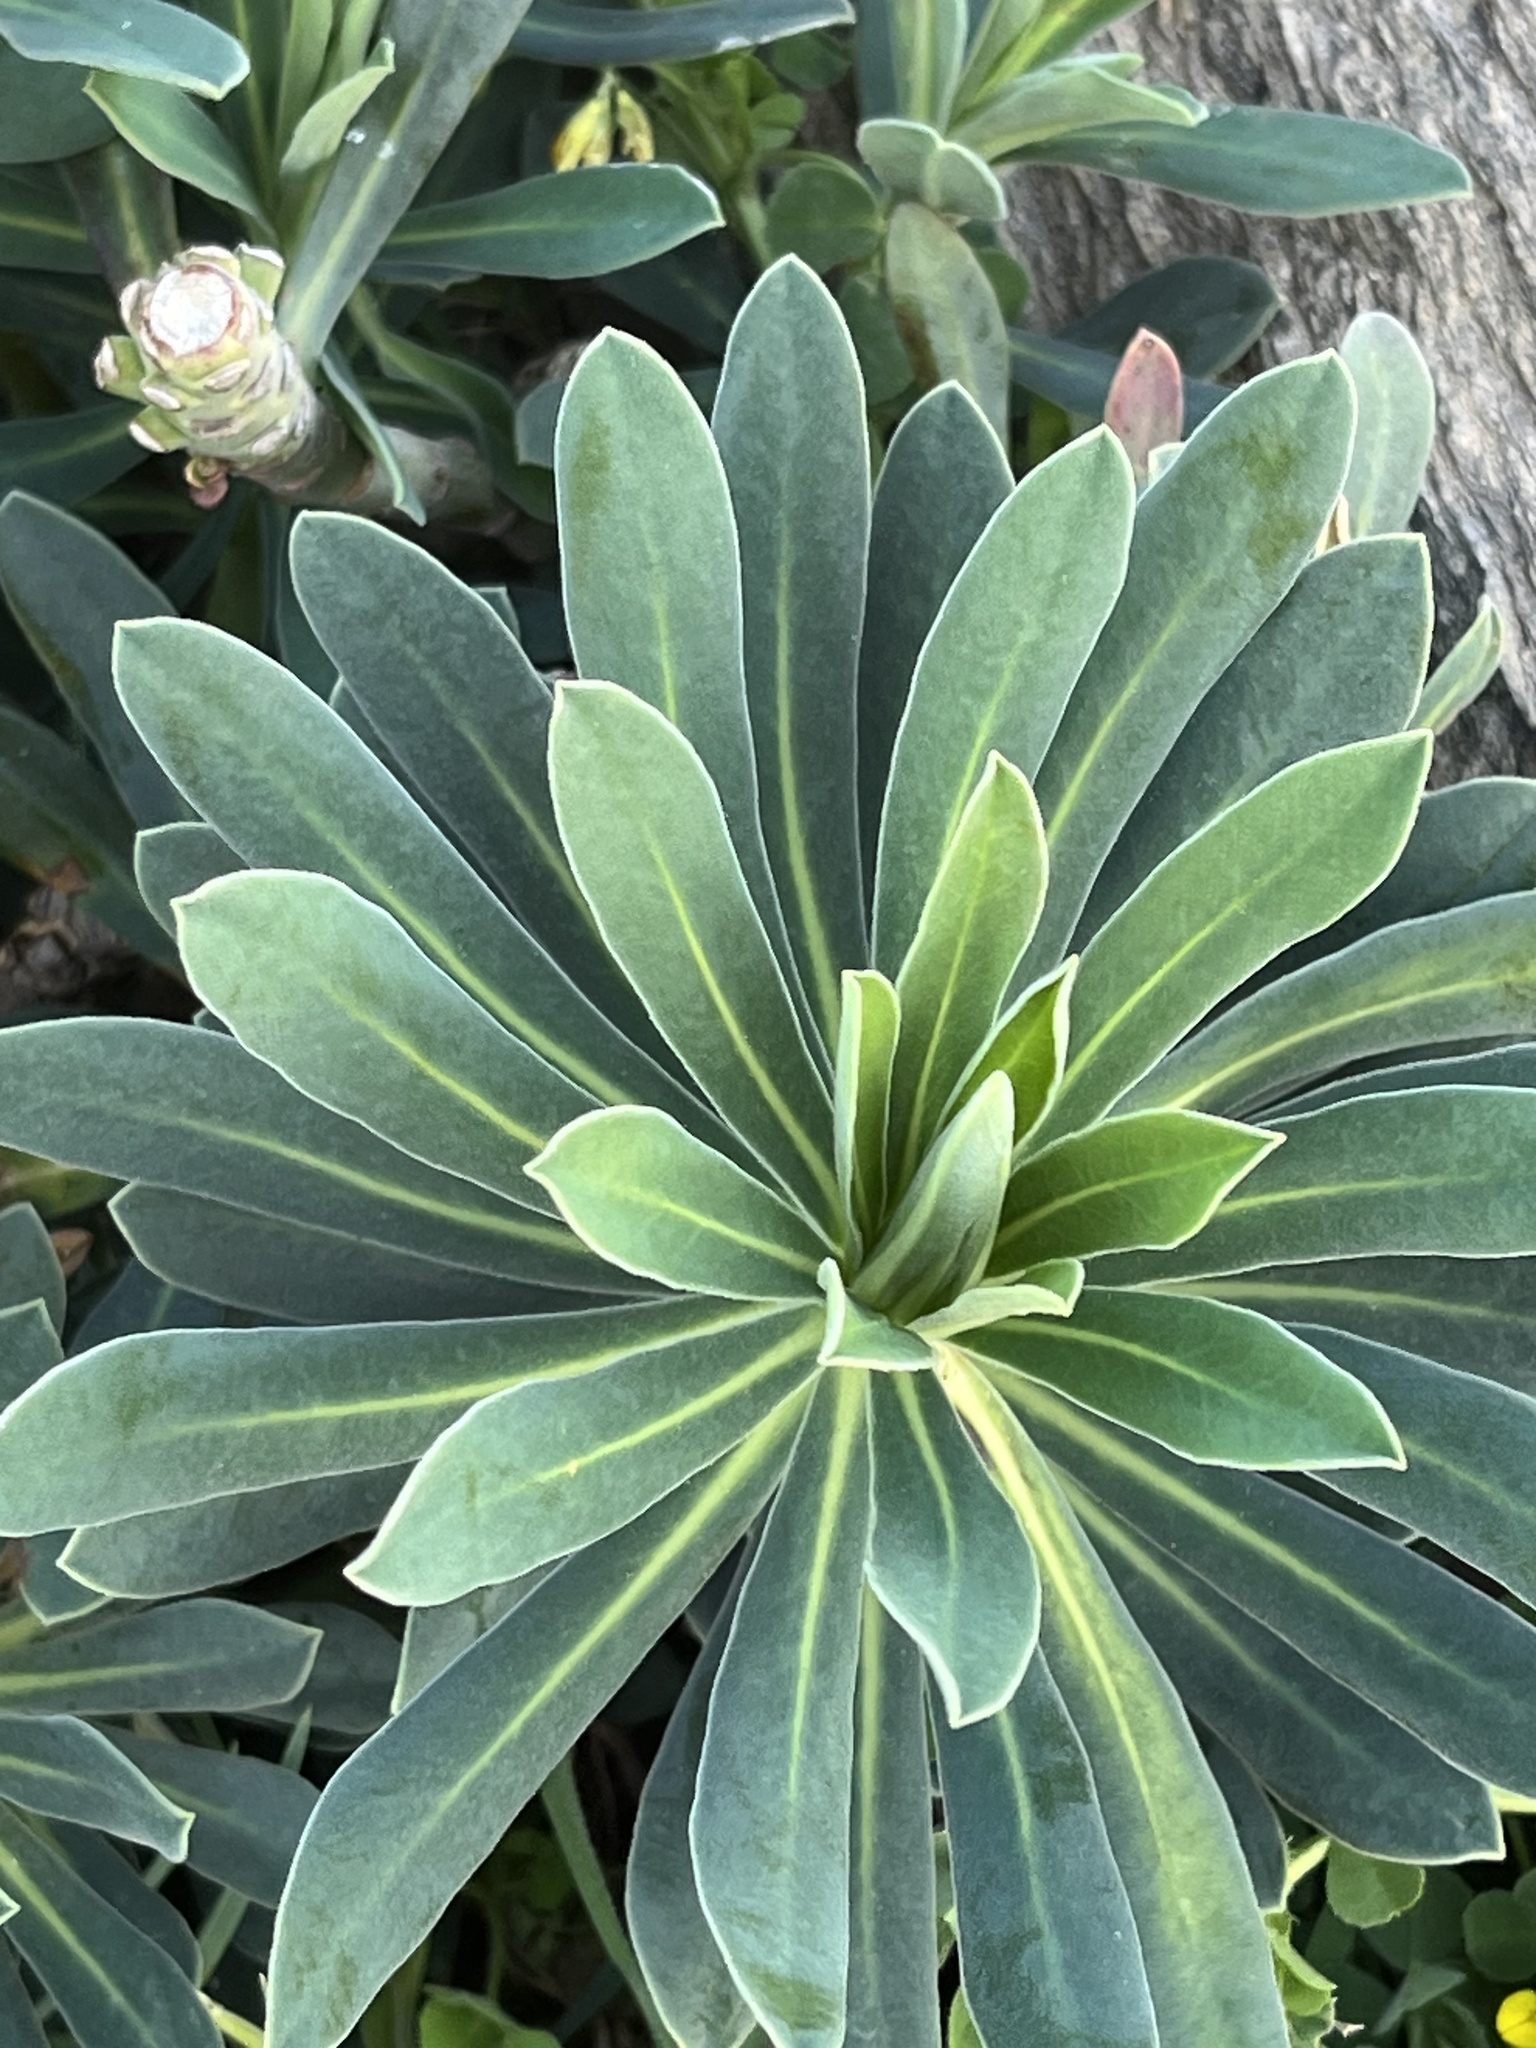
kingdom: Plantae
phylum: Tracheophyta
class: Magnoliopsida
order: Malpighiales
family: Euphorbiaceae
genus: Euphorbia
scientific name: Euphorbia characias
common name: Mediterranean spurge
